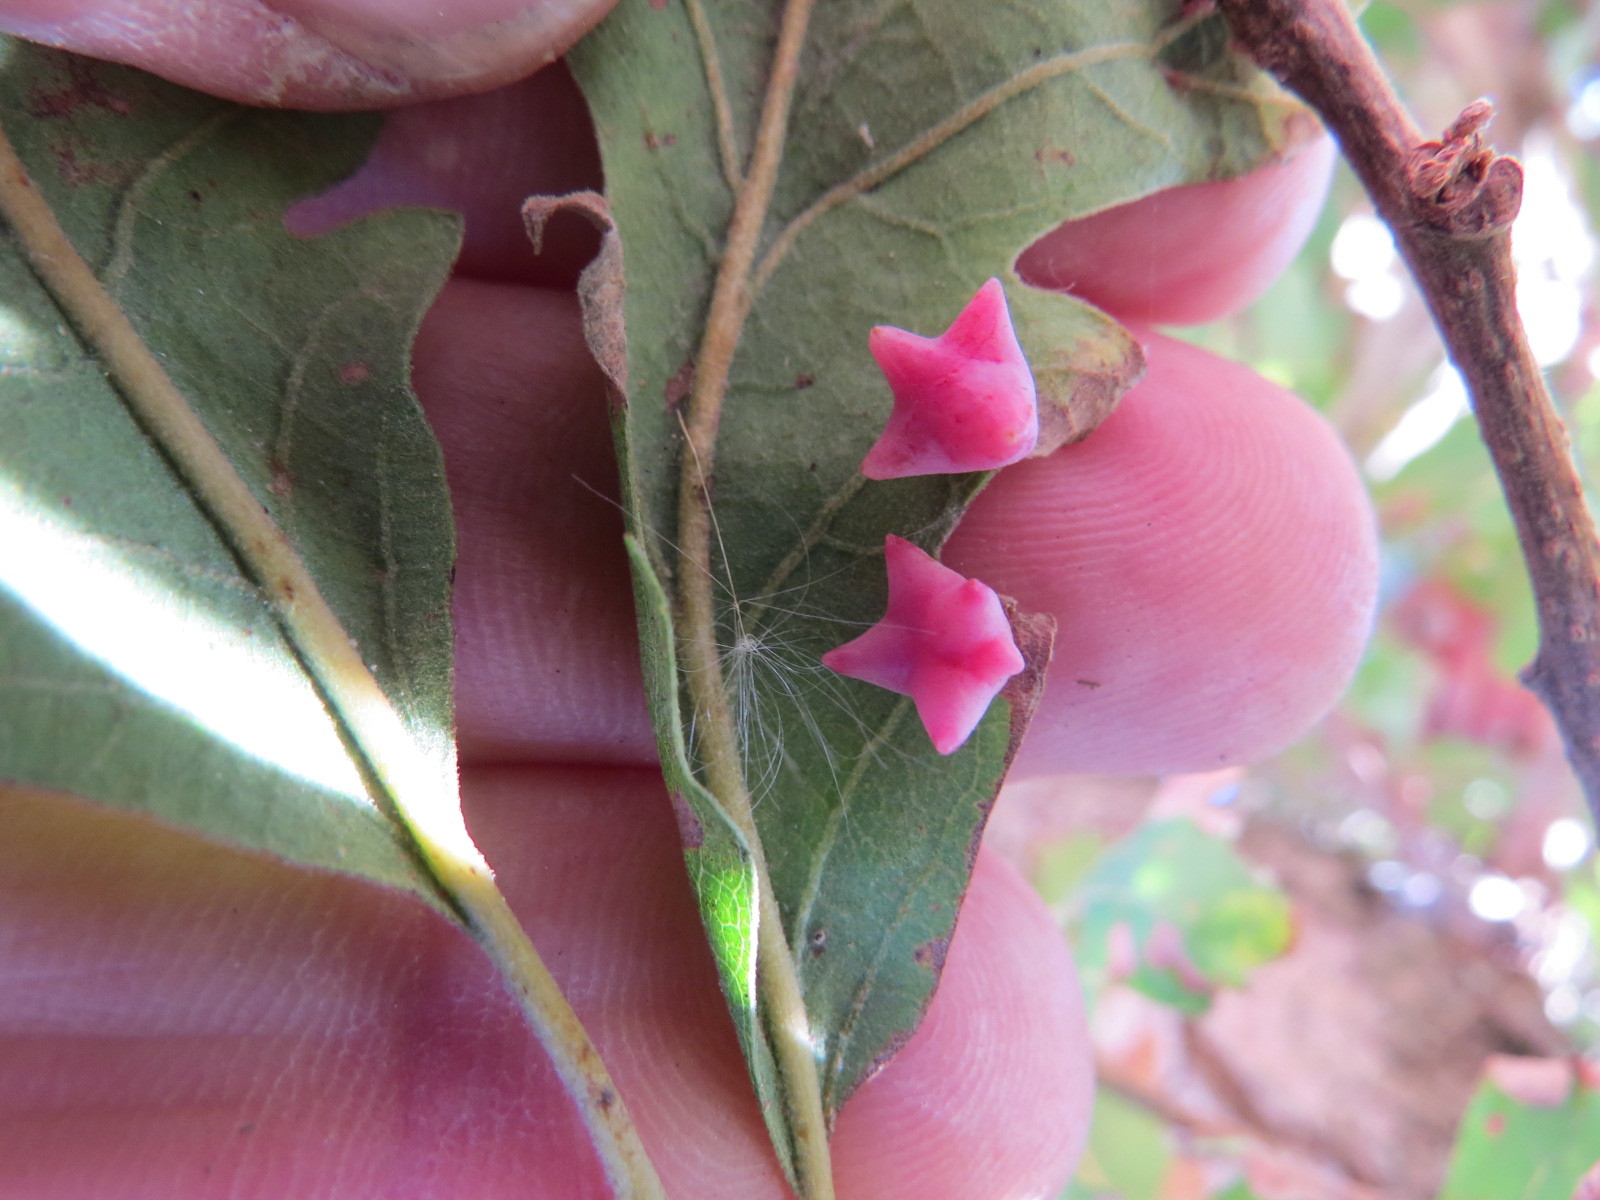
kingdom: Animalia
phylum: Arthropoda
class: Insecta
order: Hymenoptera
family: Cynipidae
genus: Cynips
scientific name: Cynips douglasi
